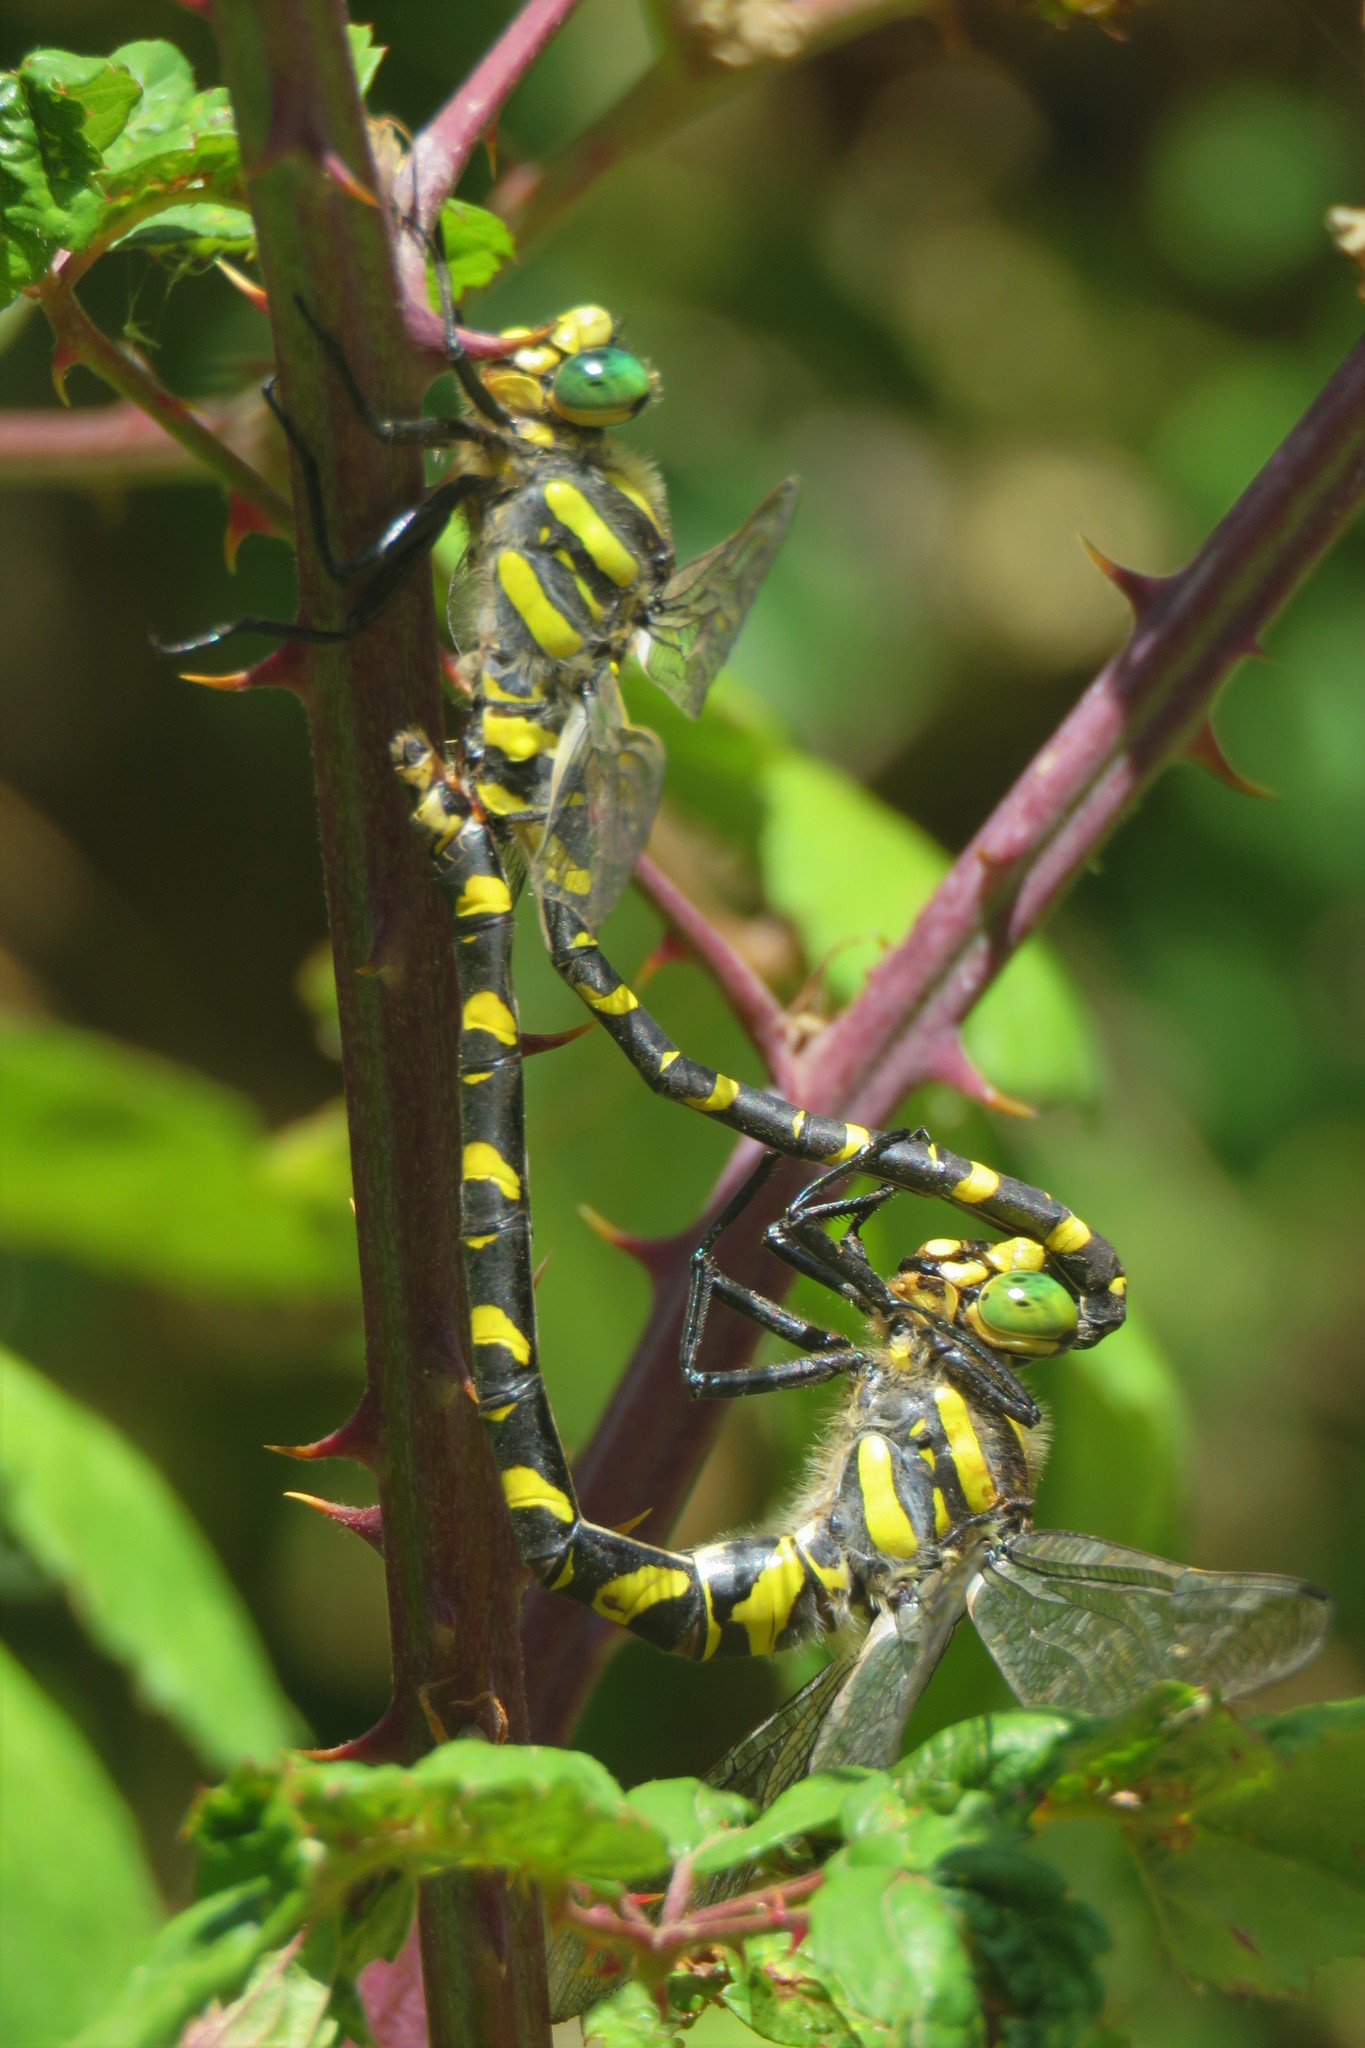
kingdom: Animalia
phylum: Arthropoda
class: Insecta
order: Odonata
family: Cordulegastridae
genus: Cordulegaster
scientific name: Cordulegaster boltonii
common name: Golden-ringed dragonfly
